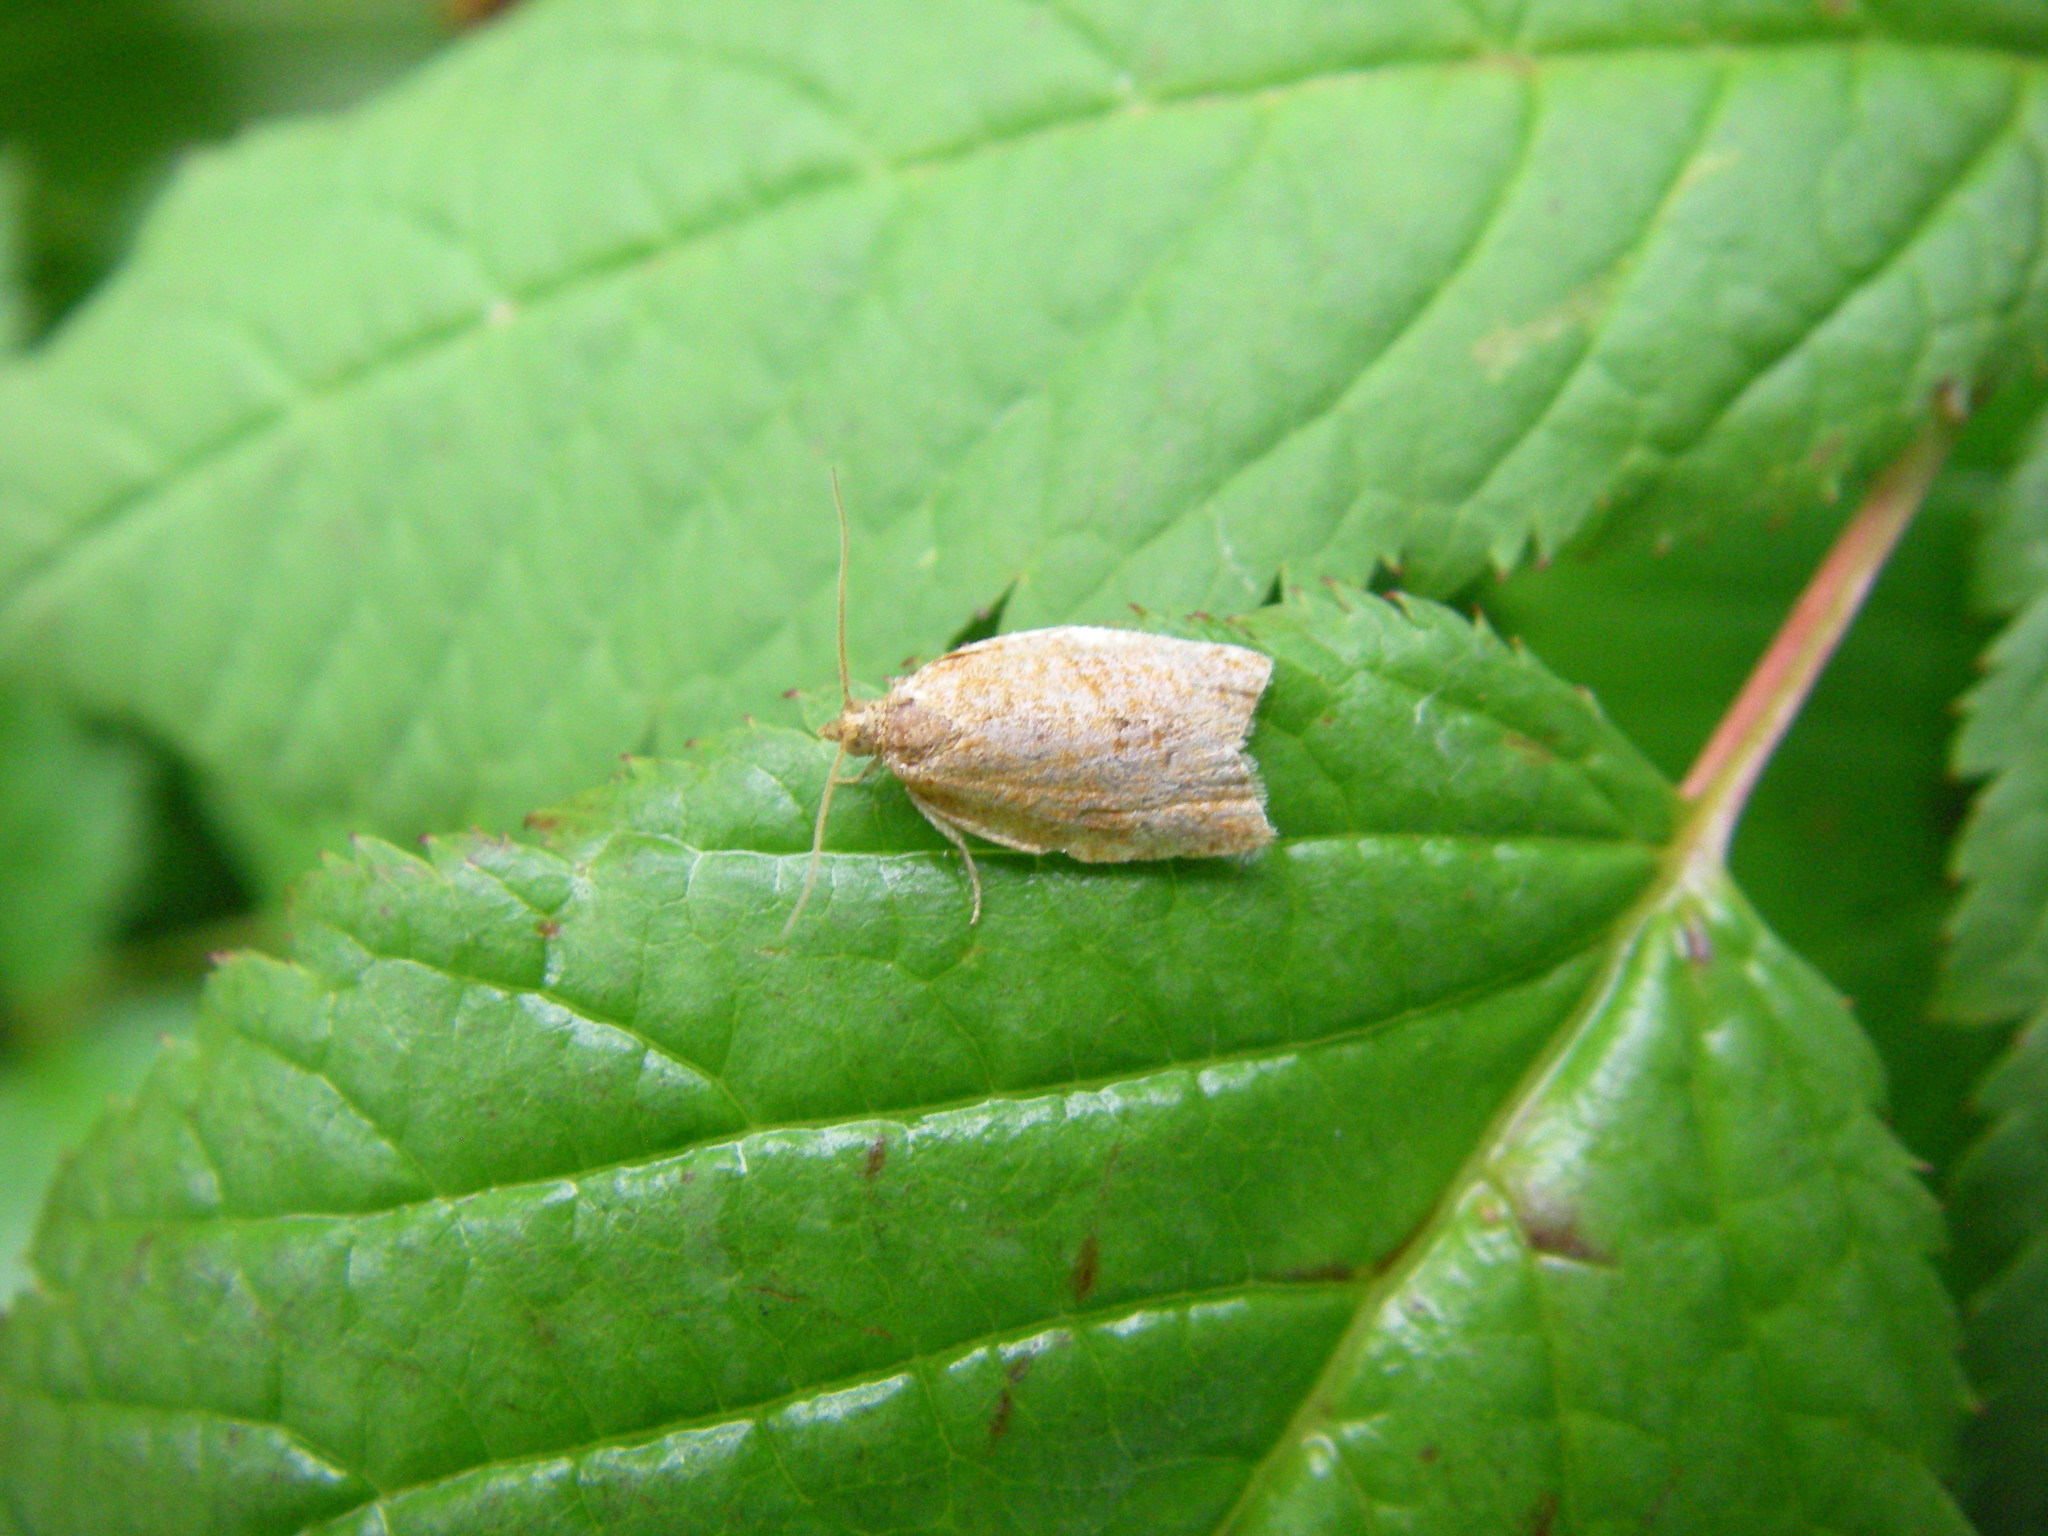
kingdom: Animalia
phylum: Arthropoda
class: Insecta
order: Lepidoptera
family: Tortricidae
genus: Clepsis
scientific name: Clepsis consimilana
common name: Privet tortrix
